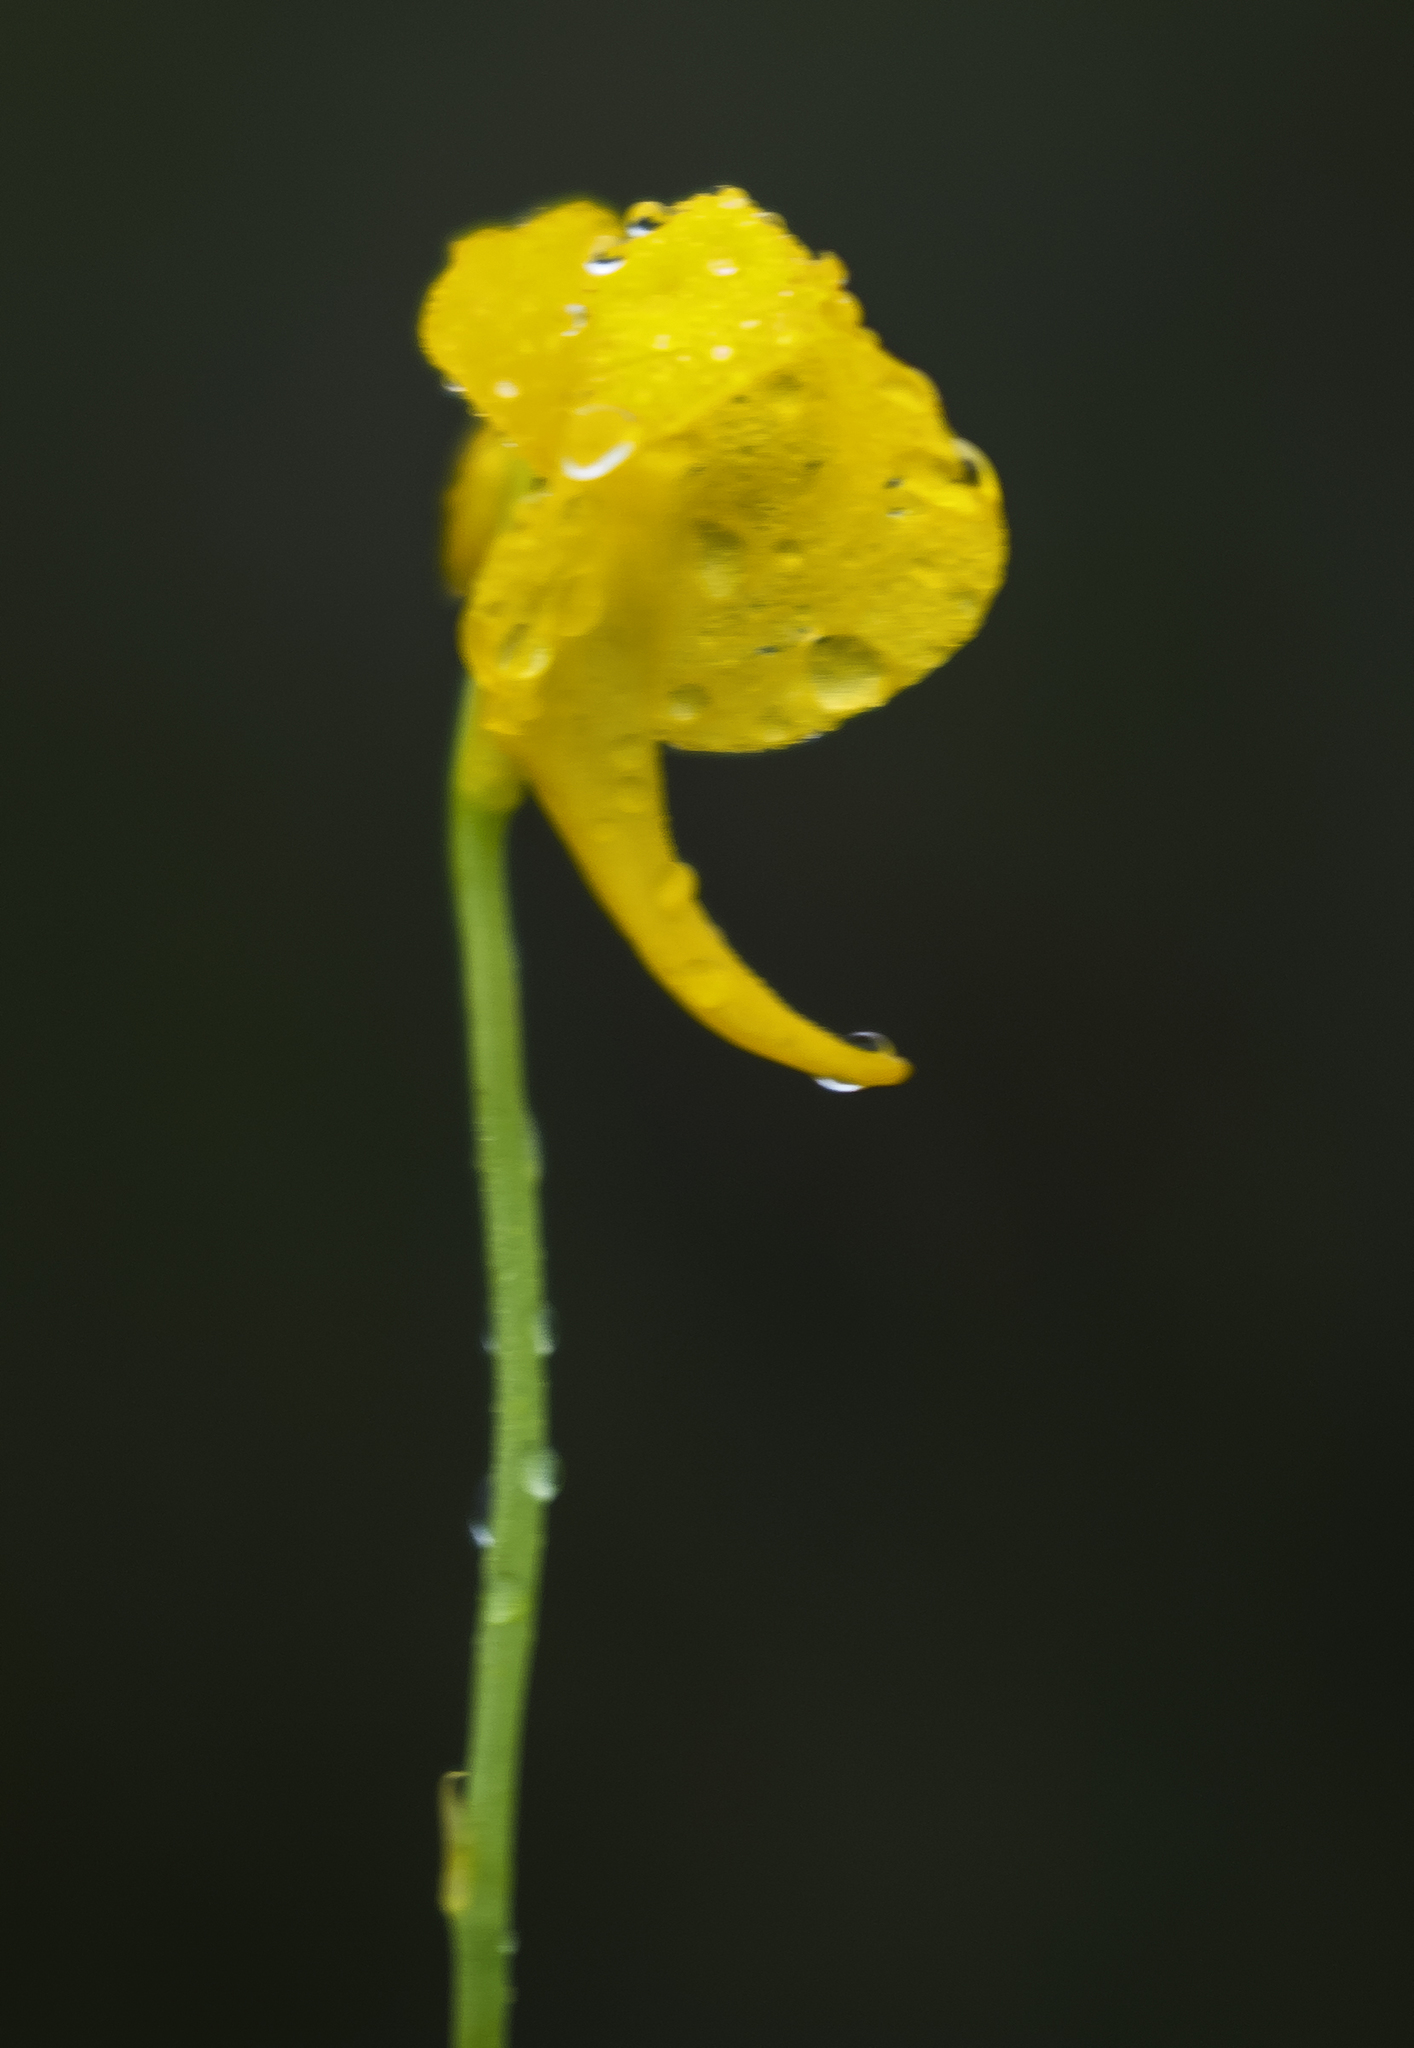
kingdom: Plantae
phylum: Tracheophyta
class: Magnoliopsida
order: Lamiales
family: Lentibulariaceae
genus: Utricularia
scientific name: Utricularia cornuta
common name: Horned bladderwort
